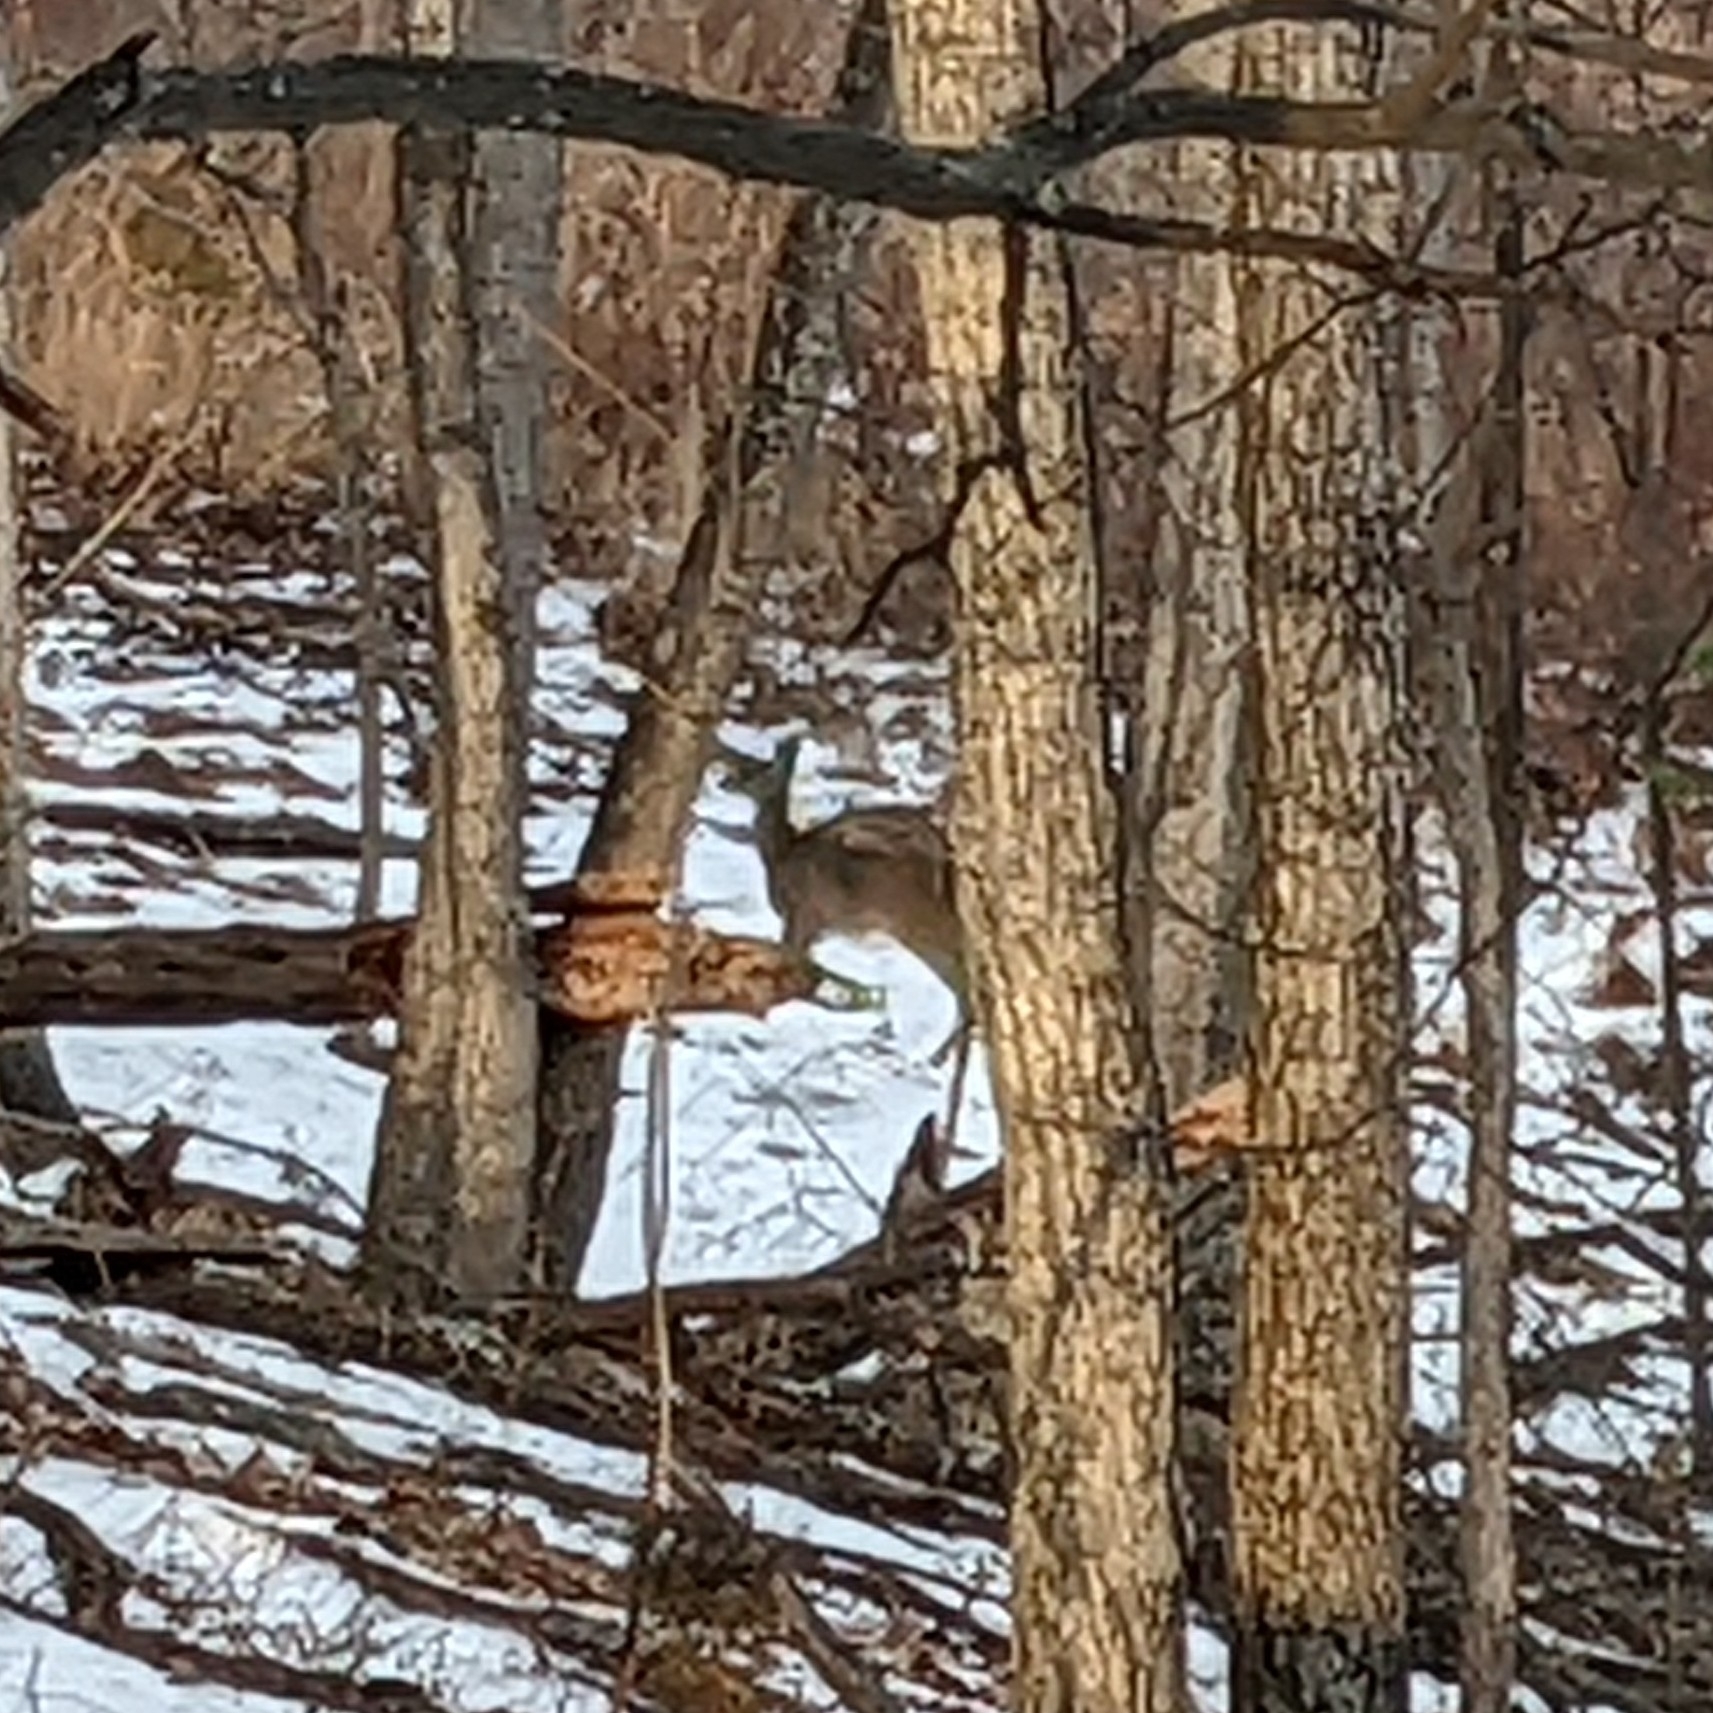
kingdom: Animalia
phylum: Chordata
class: Mammalia
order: Artiodactyla
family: Cervidae
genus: Odocoileus
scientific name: Odocoileus virginianus
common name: White-tailed deer
